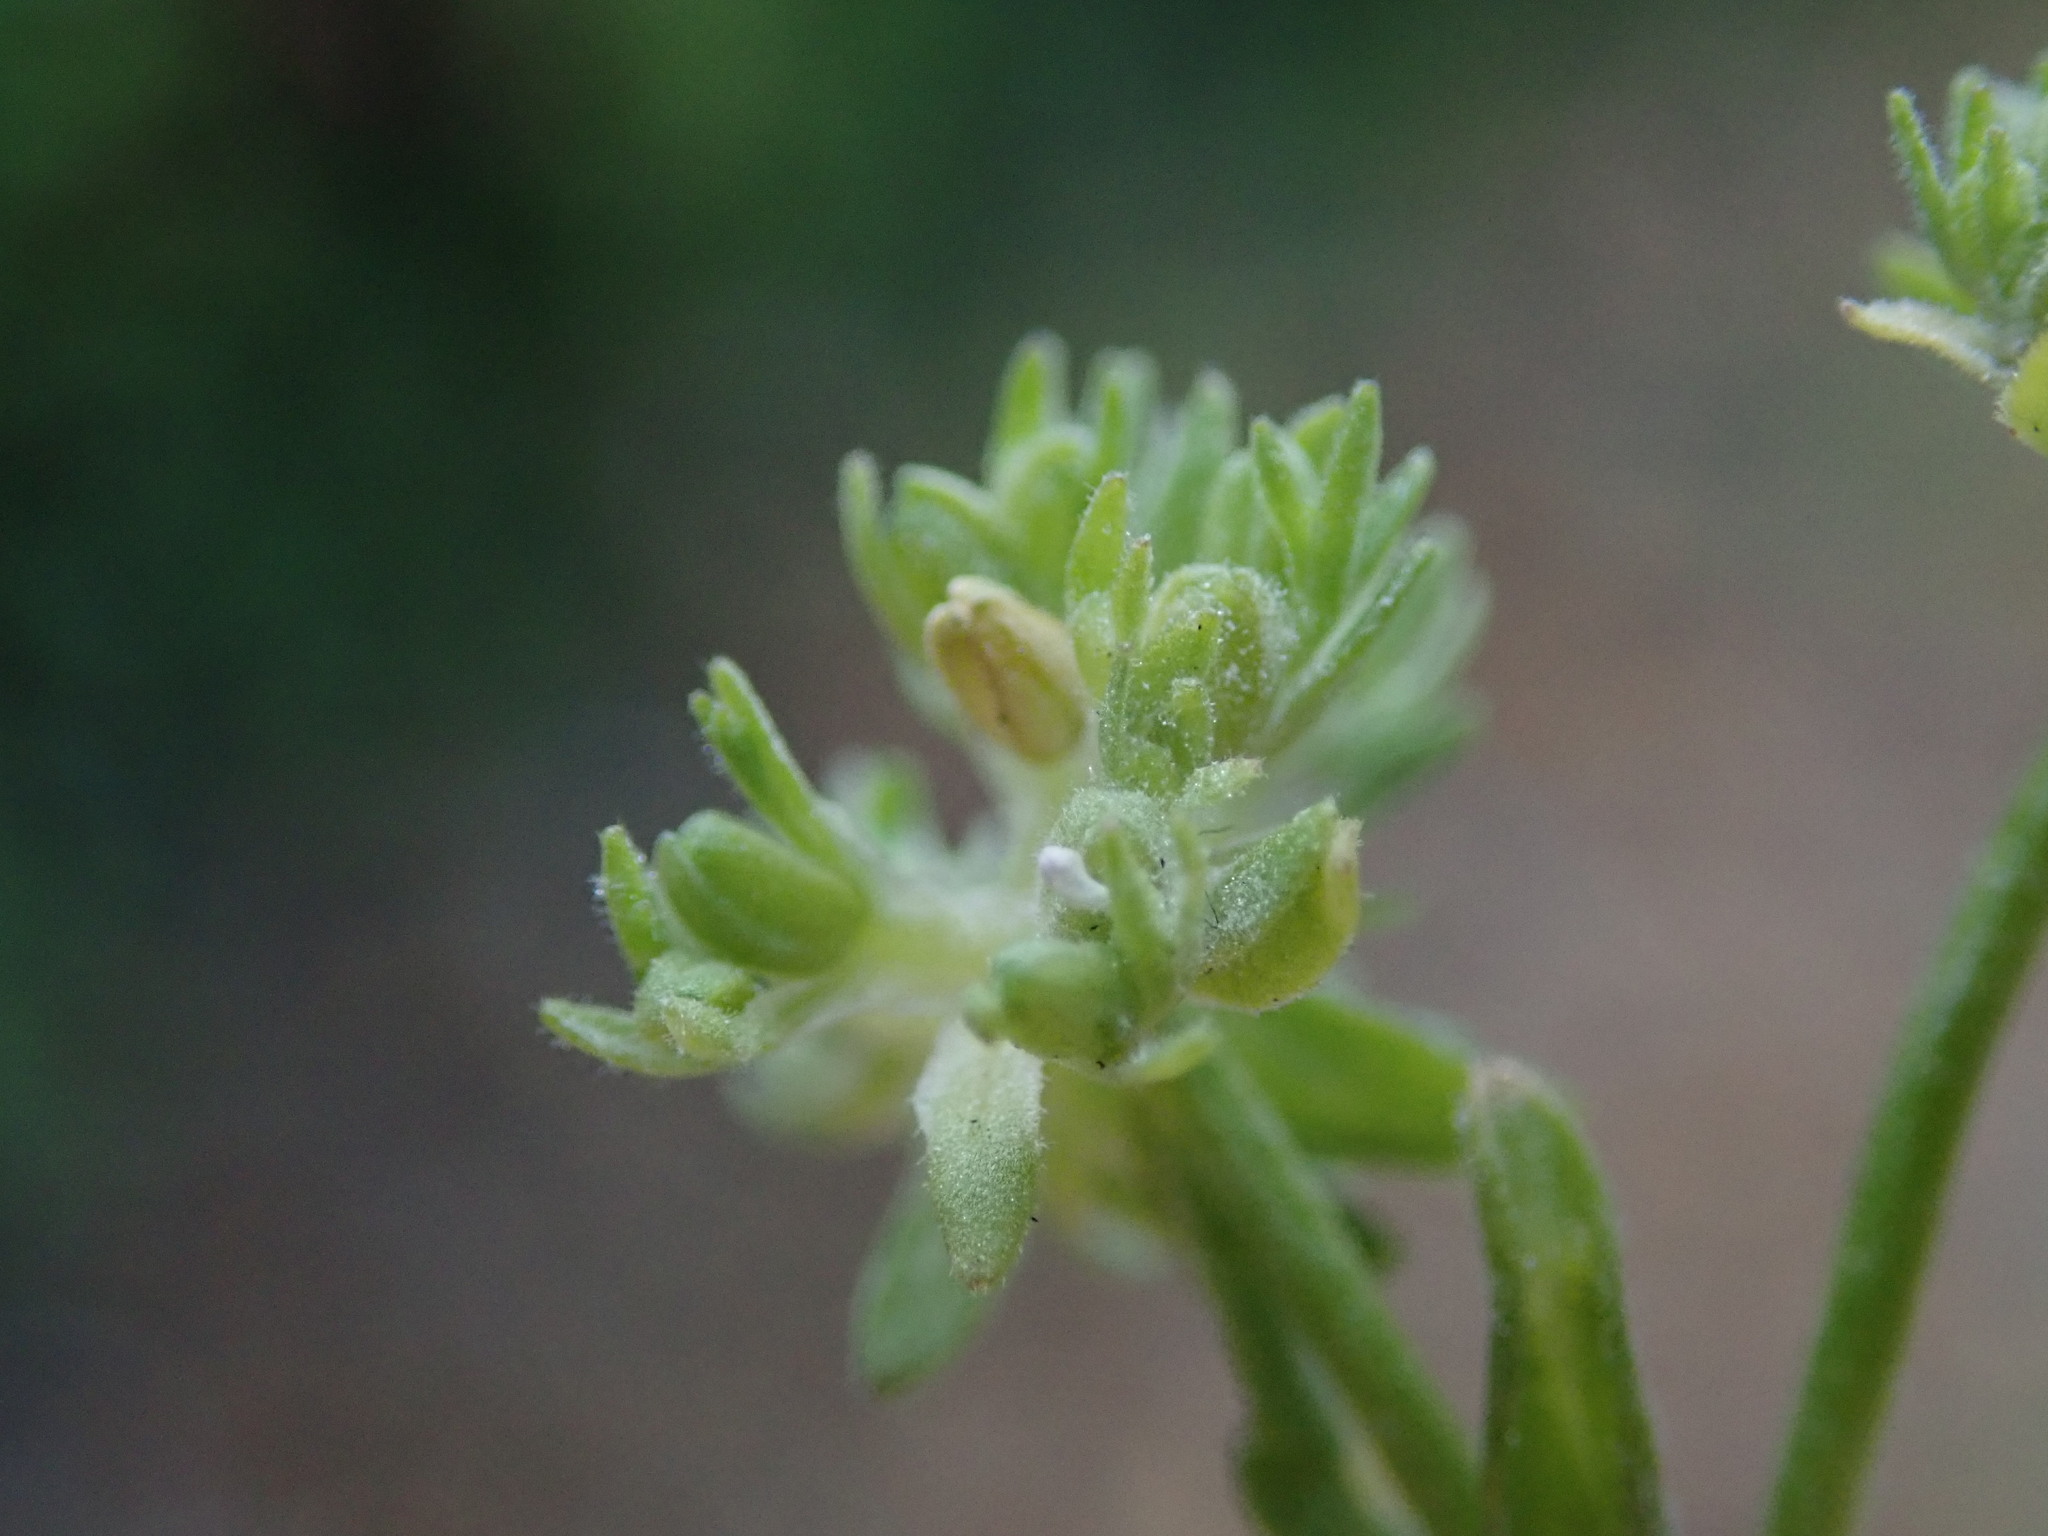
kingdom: Plantae
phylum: Tracheophyta
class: Magnoliopsida
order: Dipsacales
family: Caprifoliaceae
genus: Valerianella
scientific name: Valerianella carinata
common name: Keeled-fruited cornsalad
